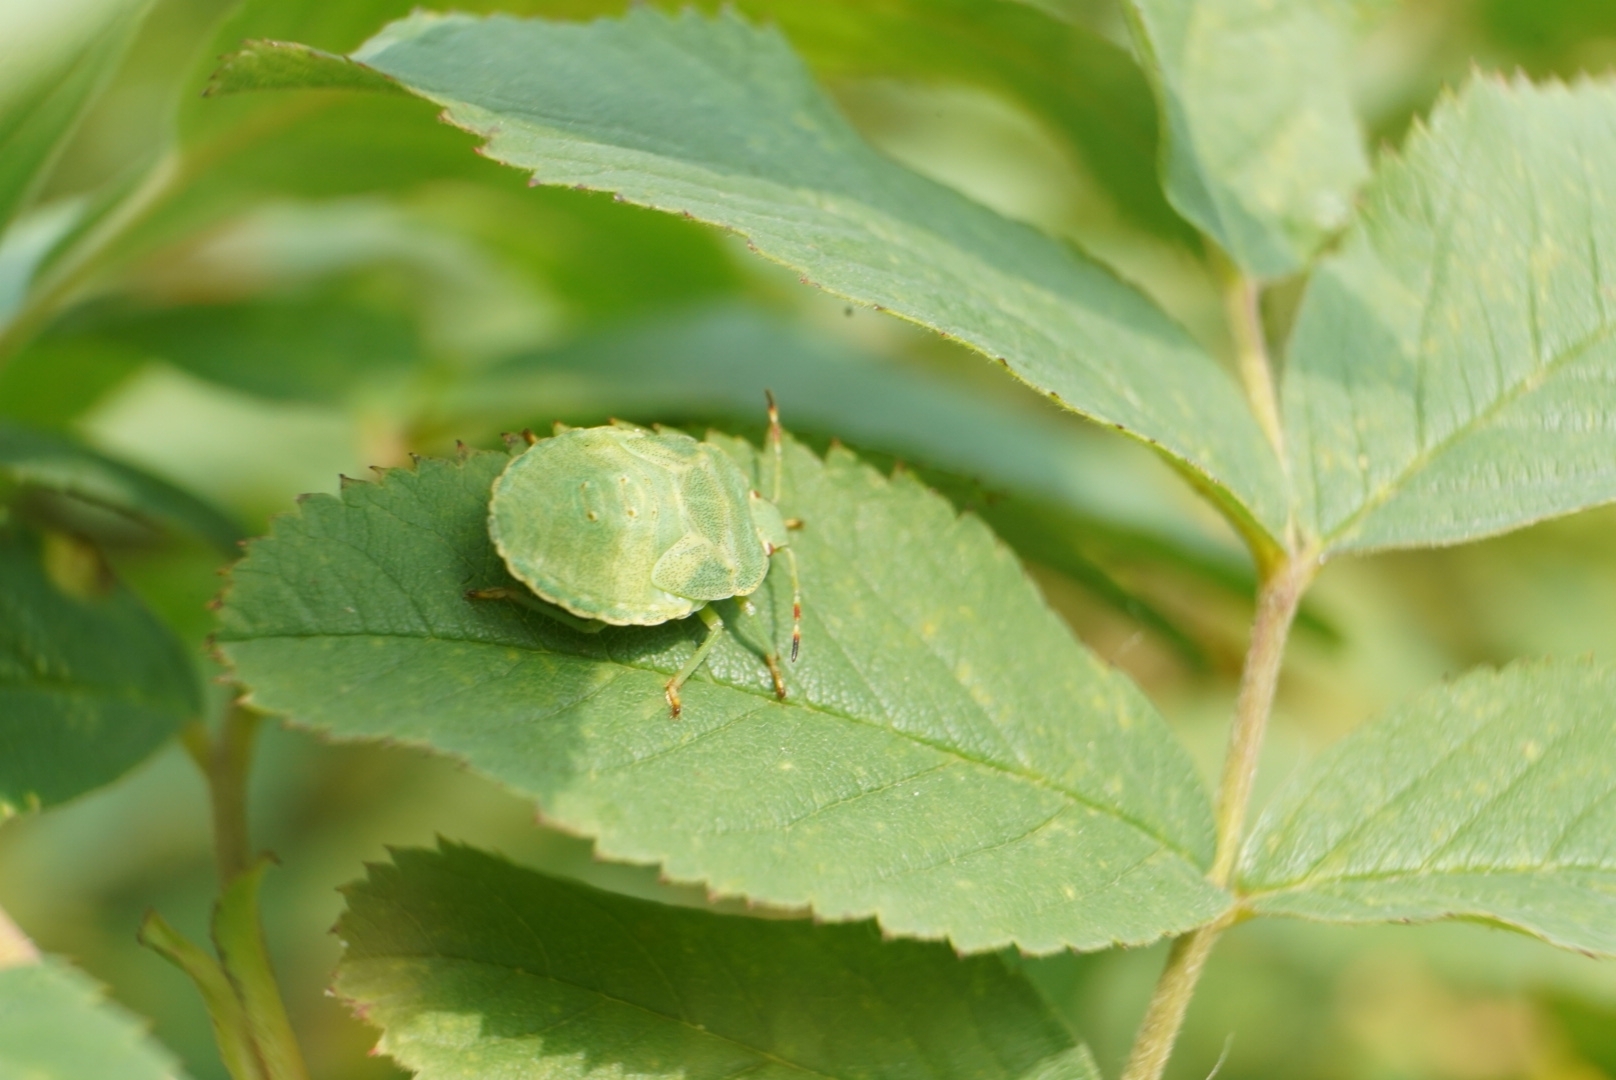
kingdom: Animalia
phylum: Arthropoda
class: Insecta
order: Hemiptera
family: Pentatomidae
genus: Palomena
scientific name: Palomena prasina
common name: Green shieldbug
